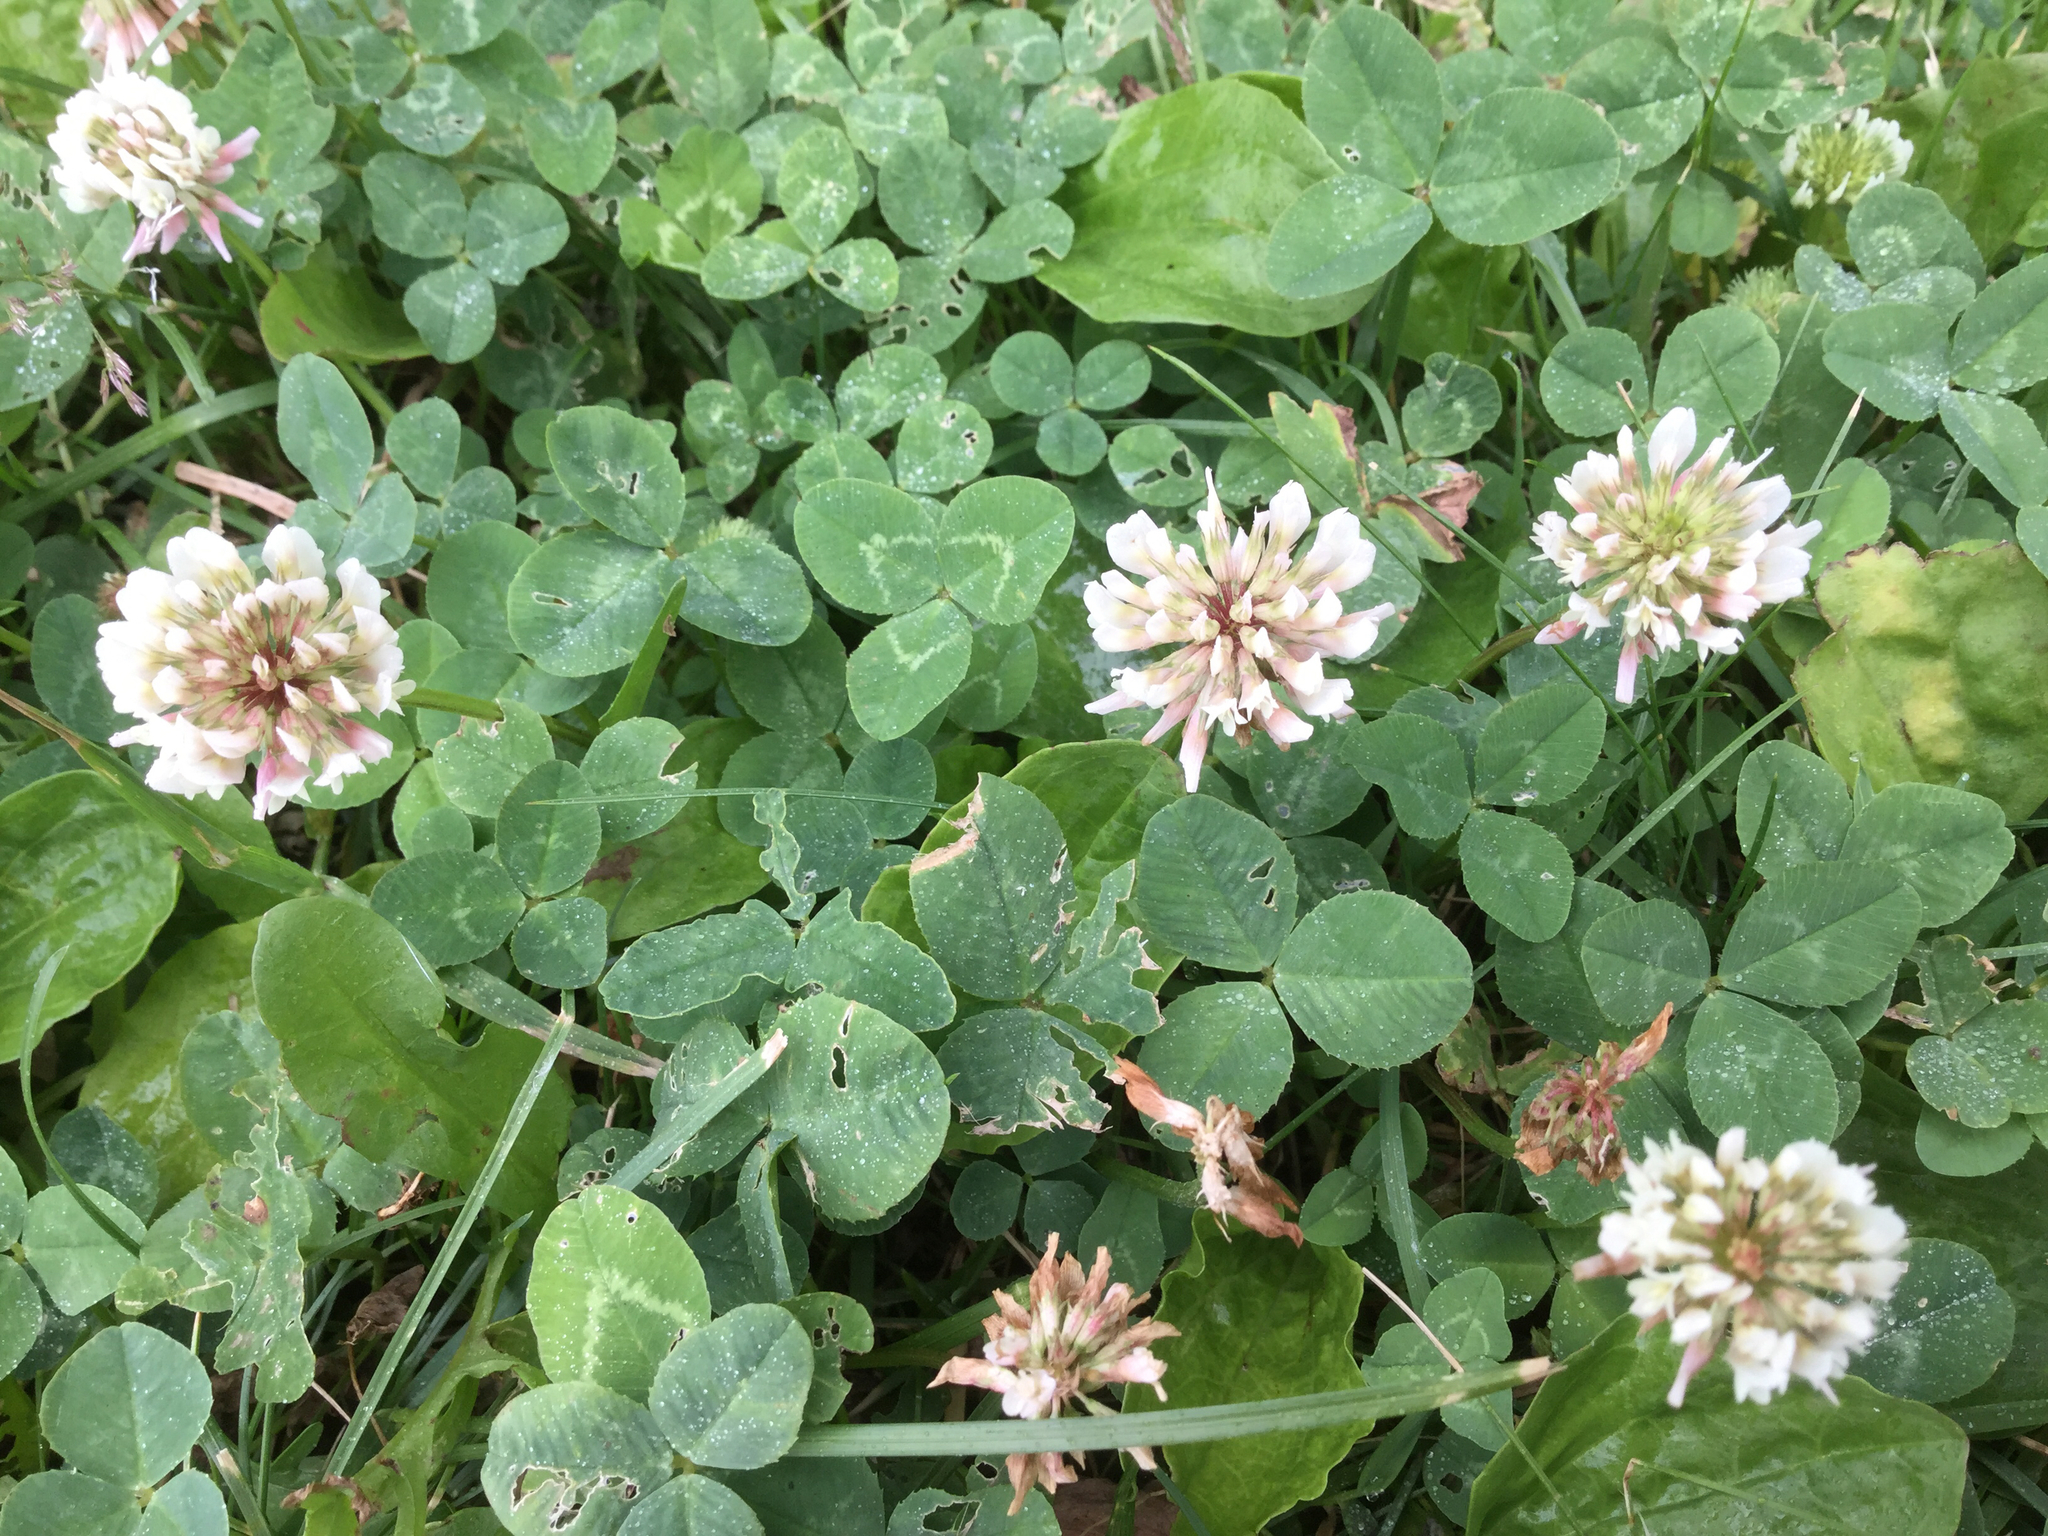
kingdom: Plantae
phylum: Tracheophyta
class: Magnoliopsida
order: Fabales
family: Fabaceae
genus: Trifolium
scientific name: Trifolium repens
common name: White clover
